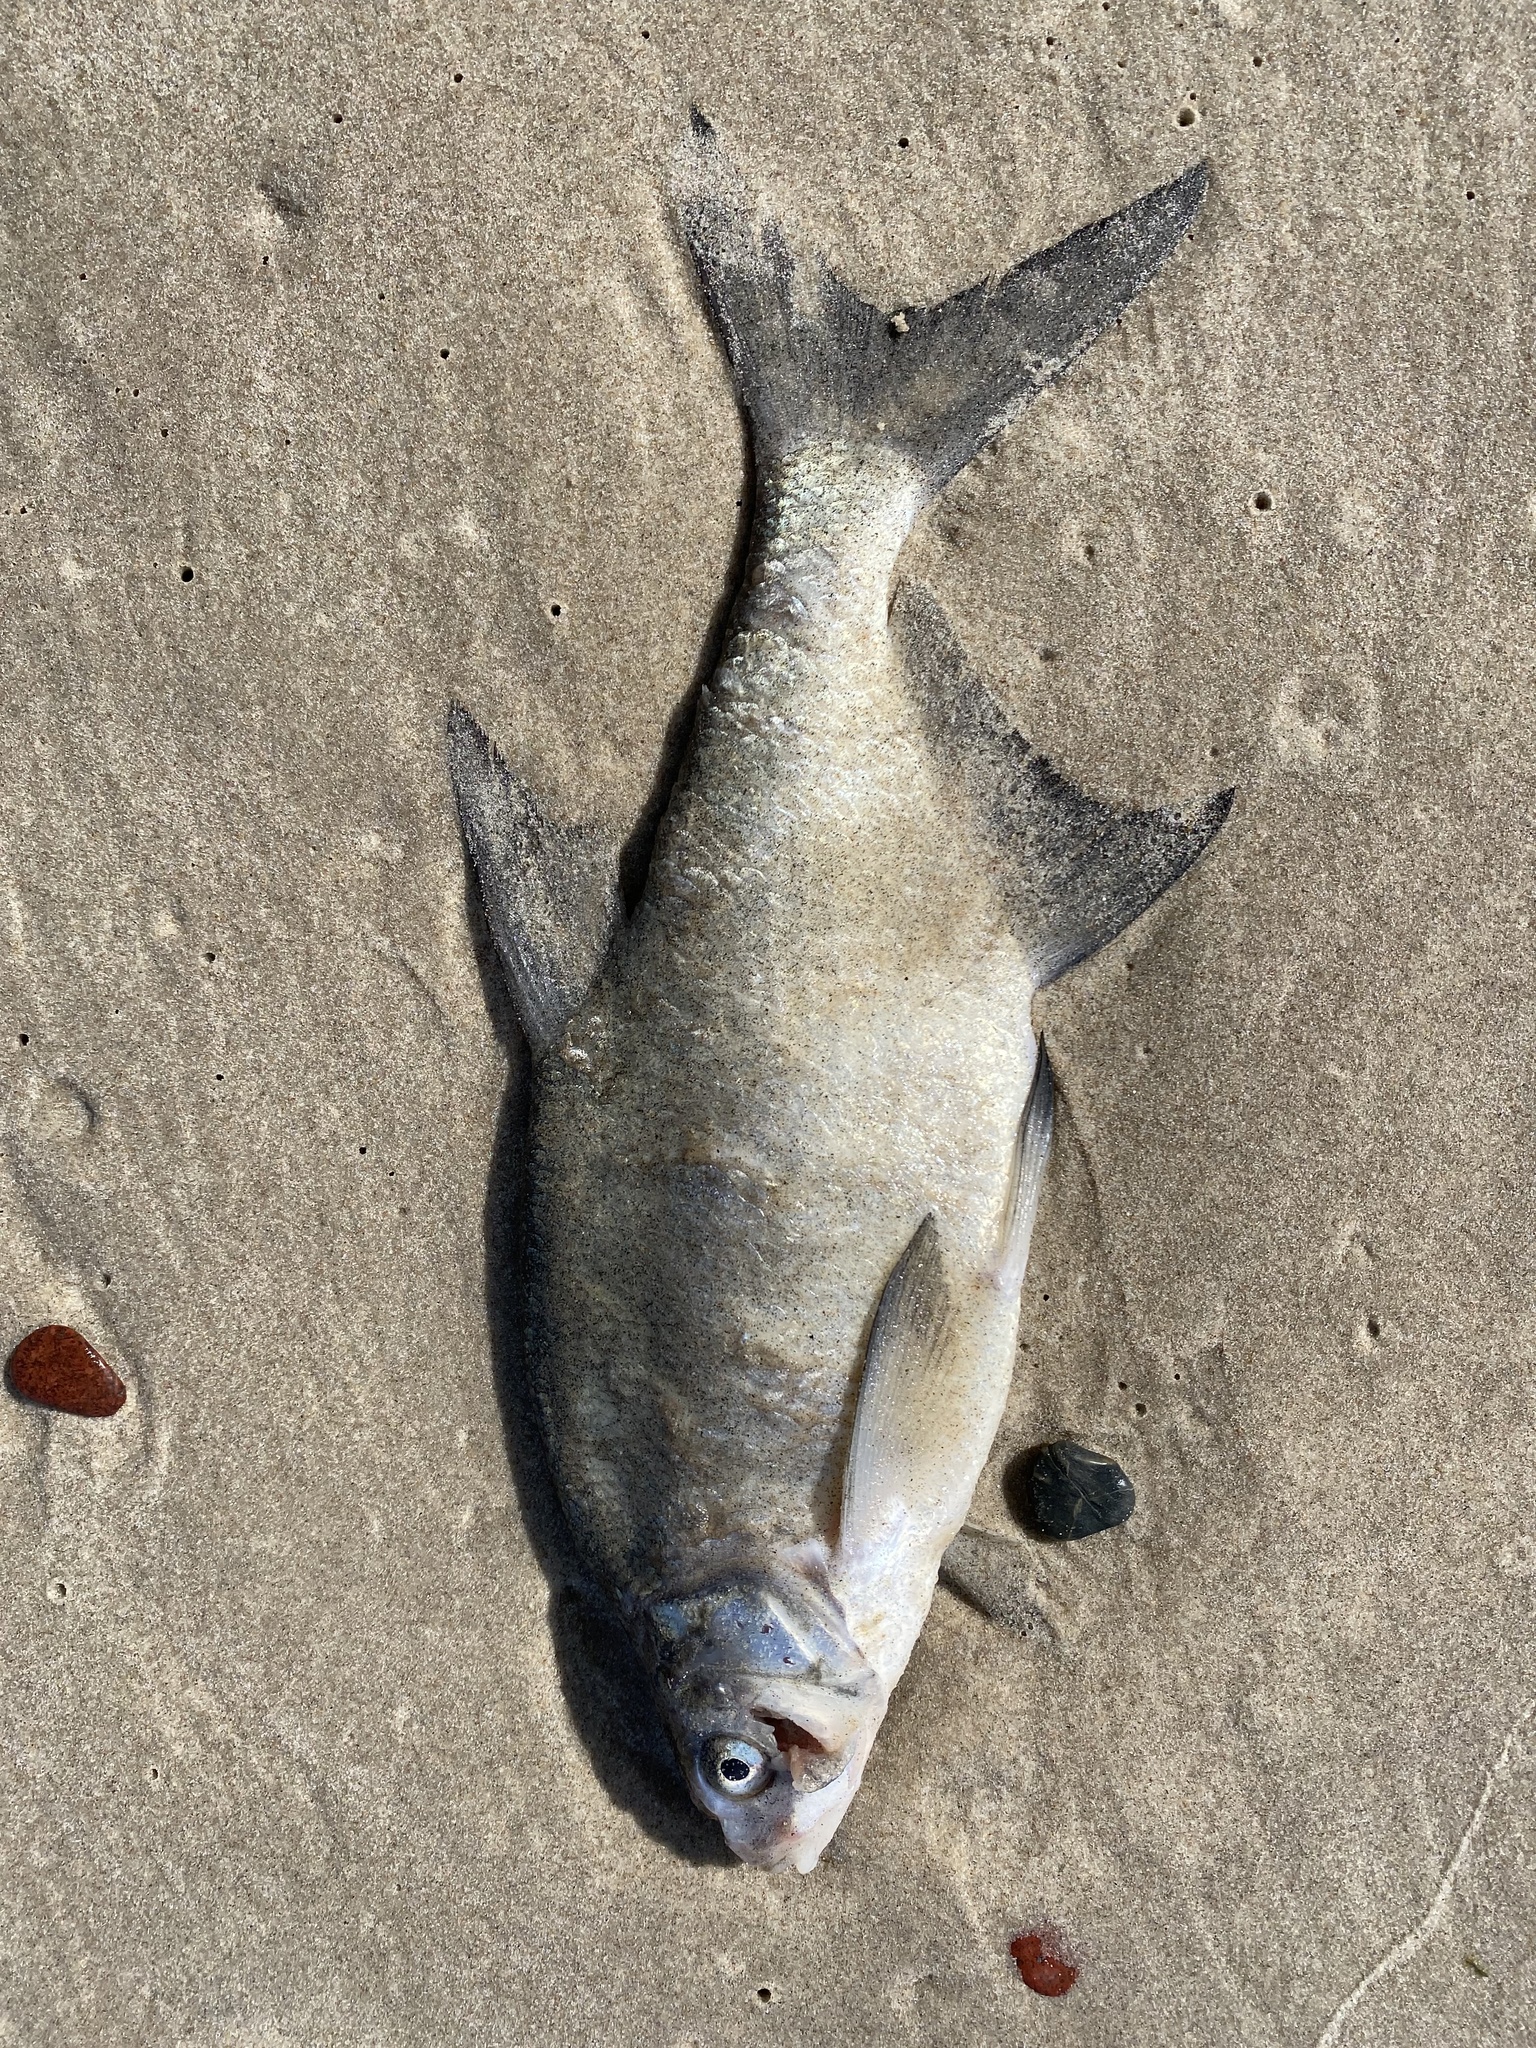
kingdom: Animalia
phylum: Chordata
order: Cypriniformes
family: Cyprinidae
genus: Abramis
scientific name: Abramis brama
